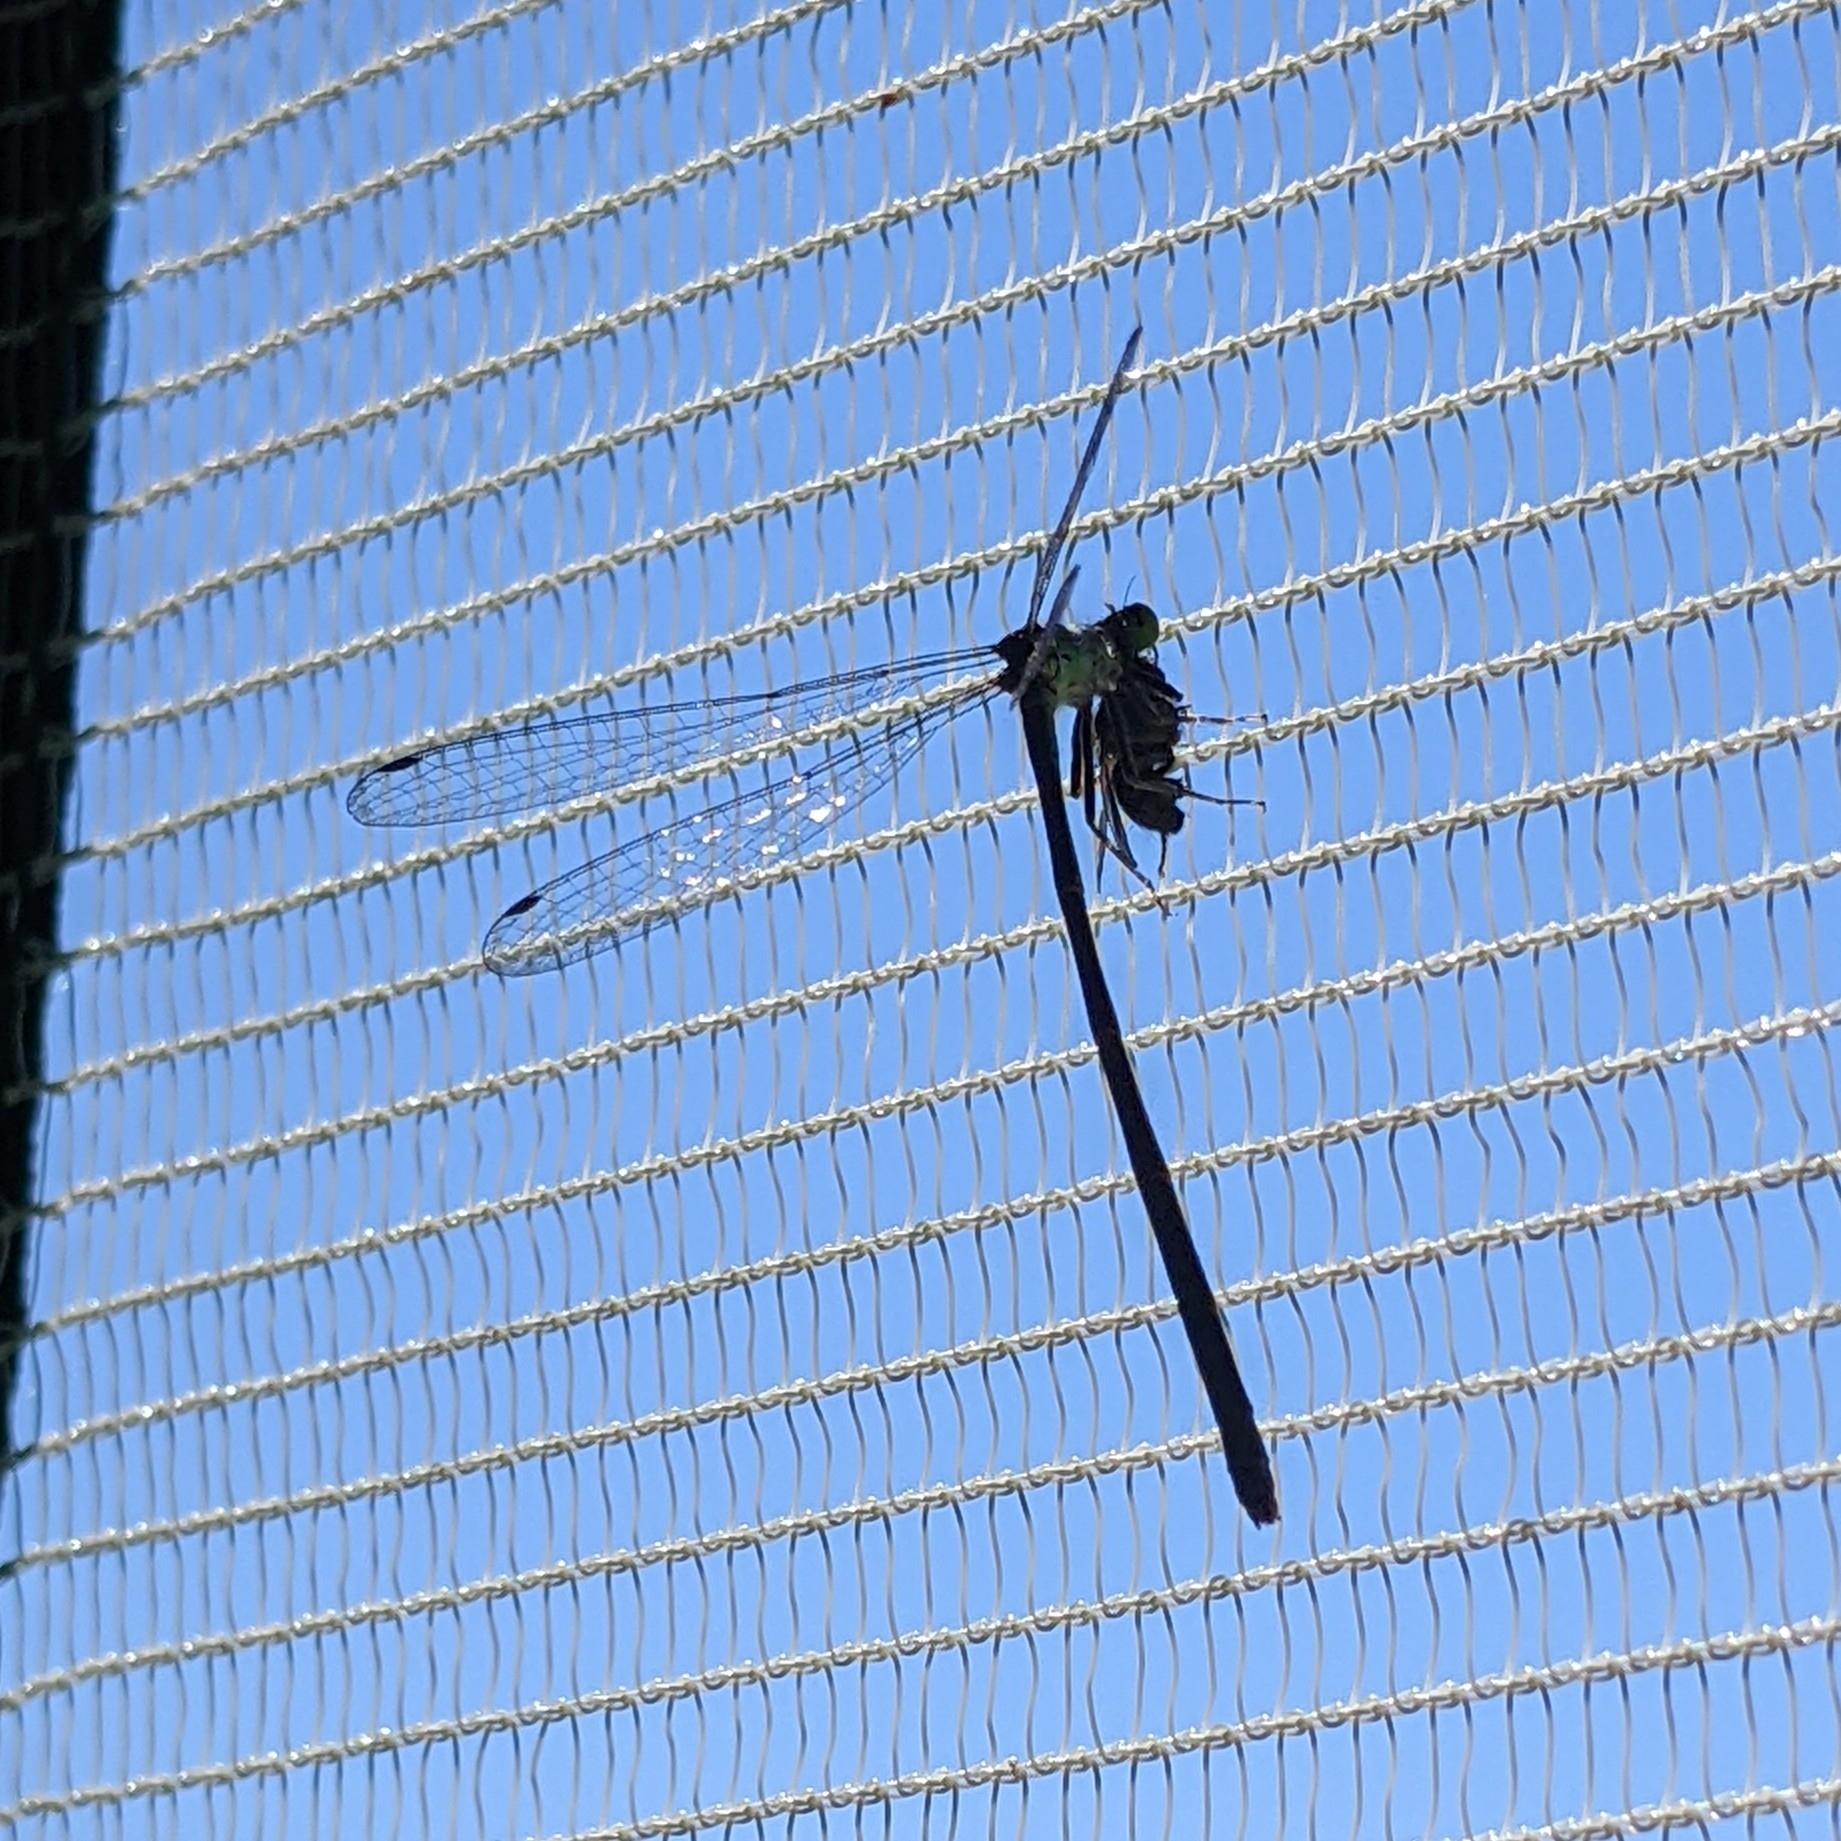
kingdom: Animalia
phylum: Arthropoda
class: Insecta
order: Odonata
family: Coenagrionidae
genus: Ischnura
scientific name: Ischnura cervula
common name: Pacific forktail
